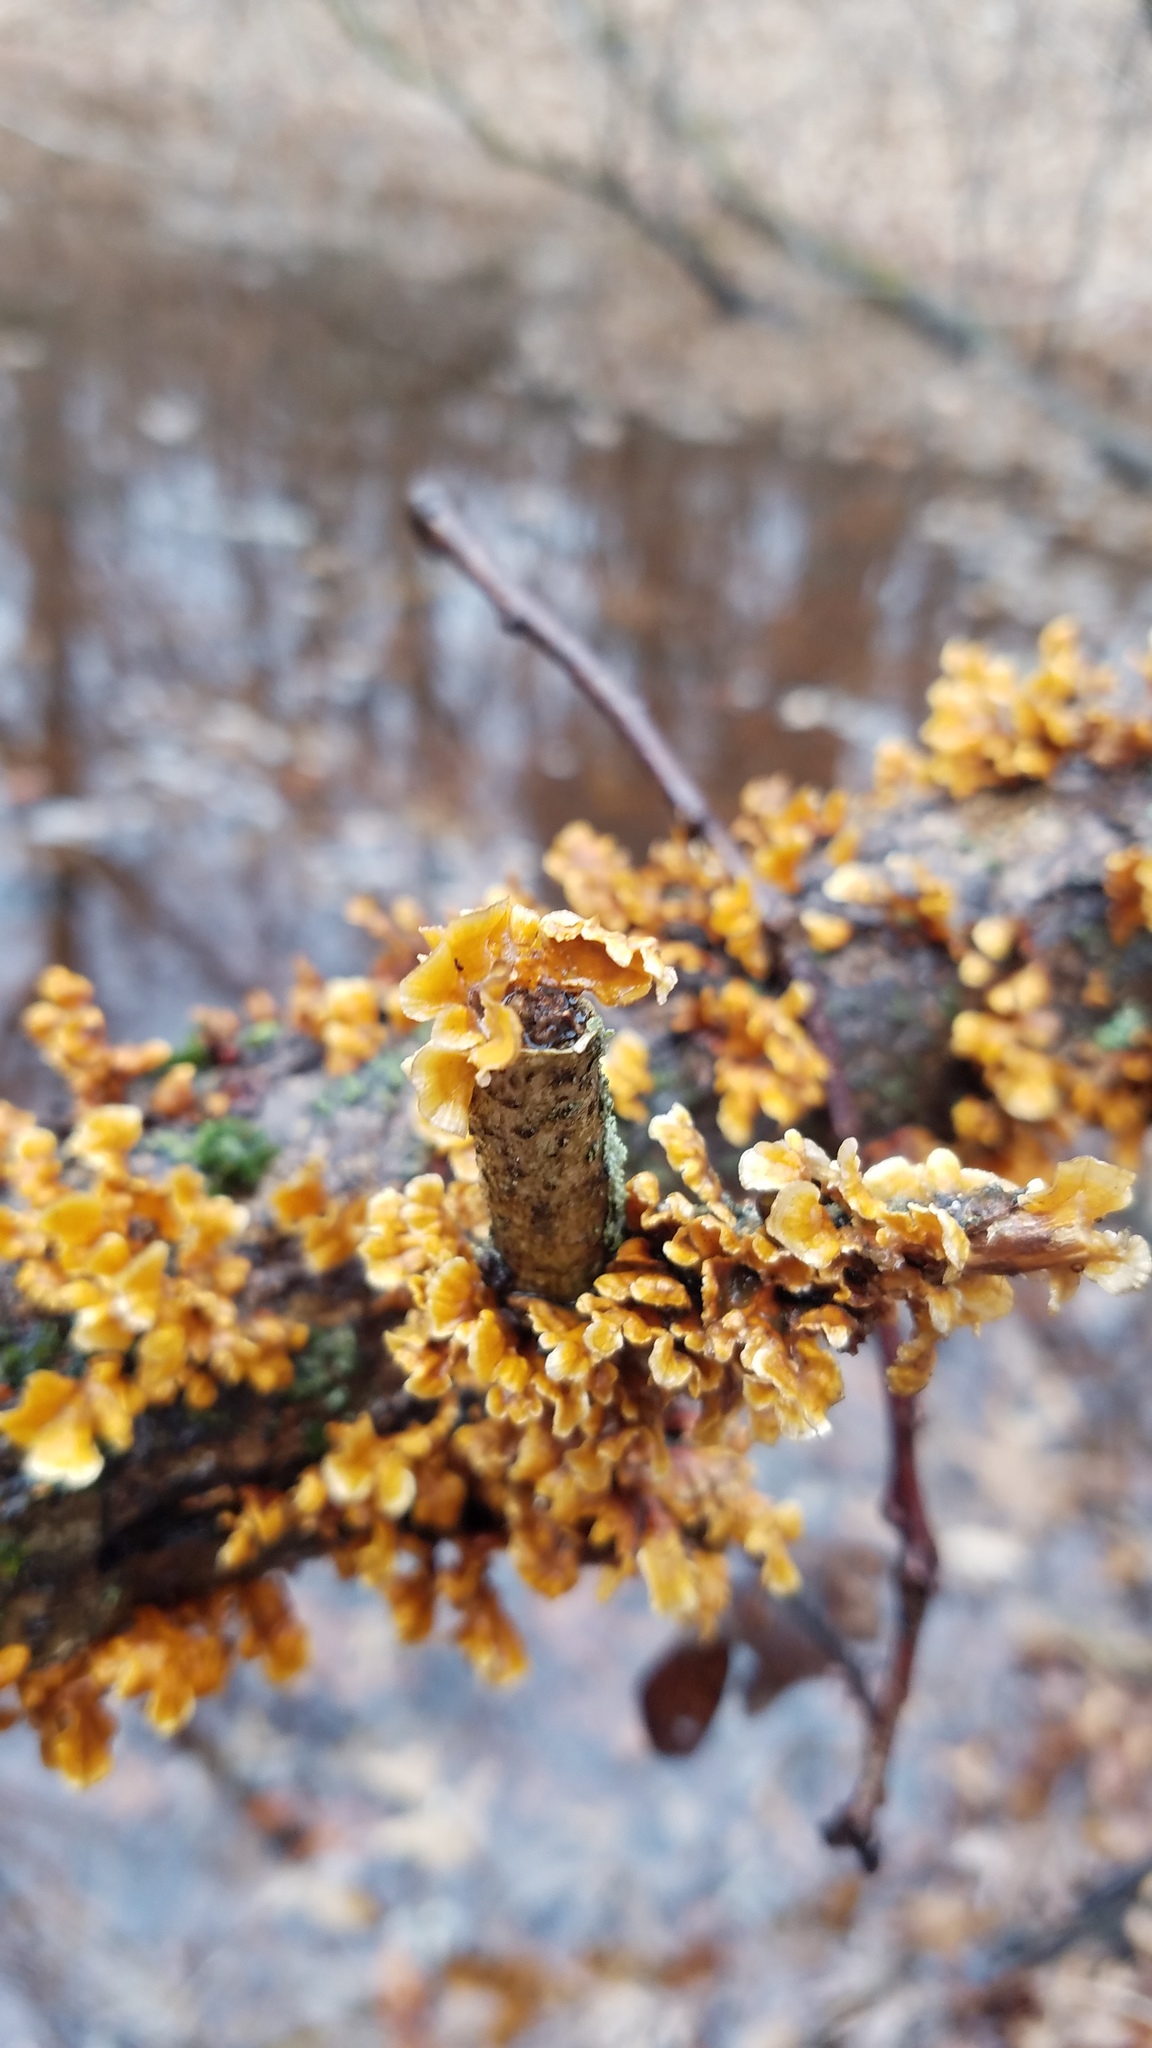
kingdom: Fungi
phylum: Basidiomycota
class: Agaricomycetes
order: Russulales
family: Stereaceae
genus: Stereum
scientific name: Stereum complicatum
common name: Crowded parchment
